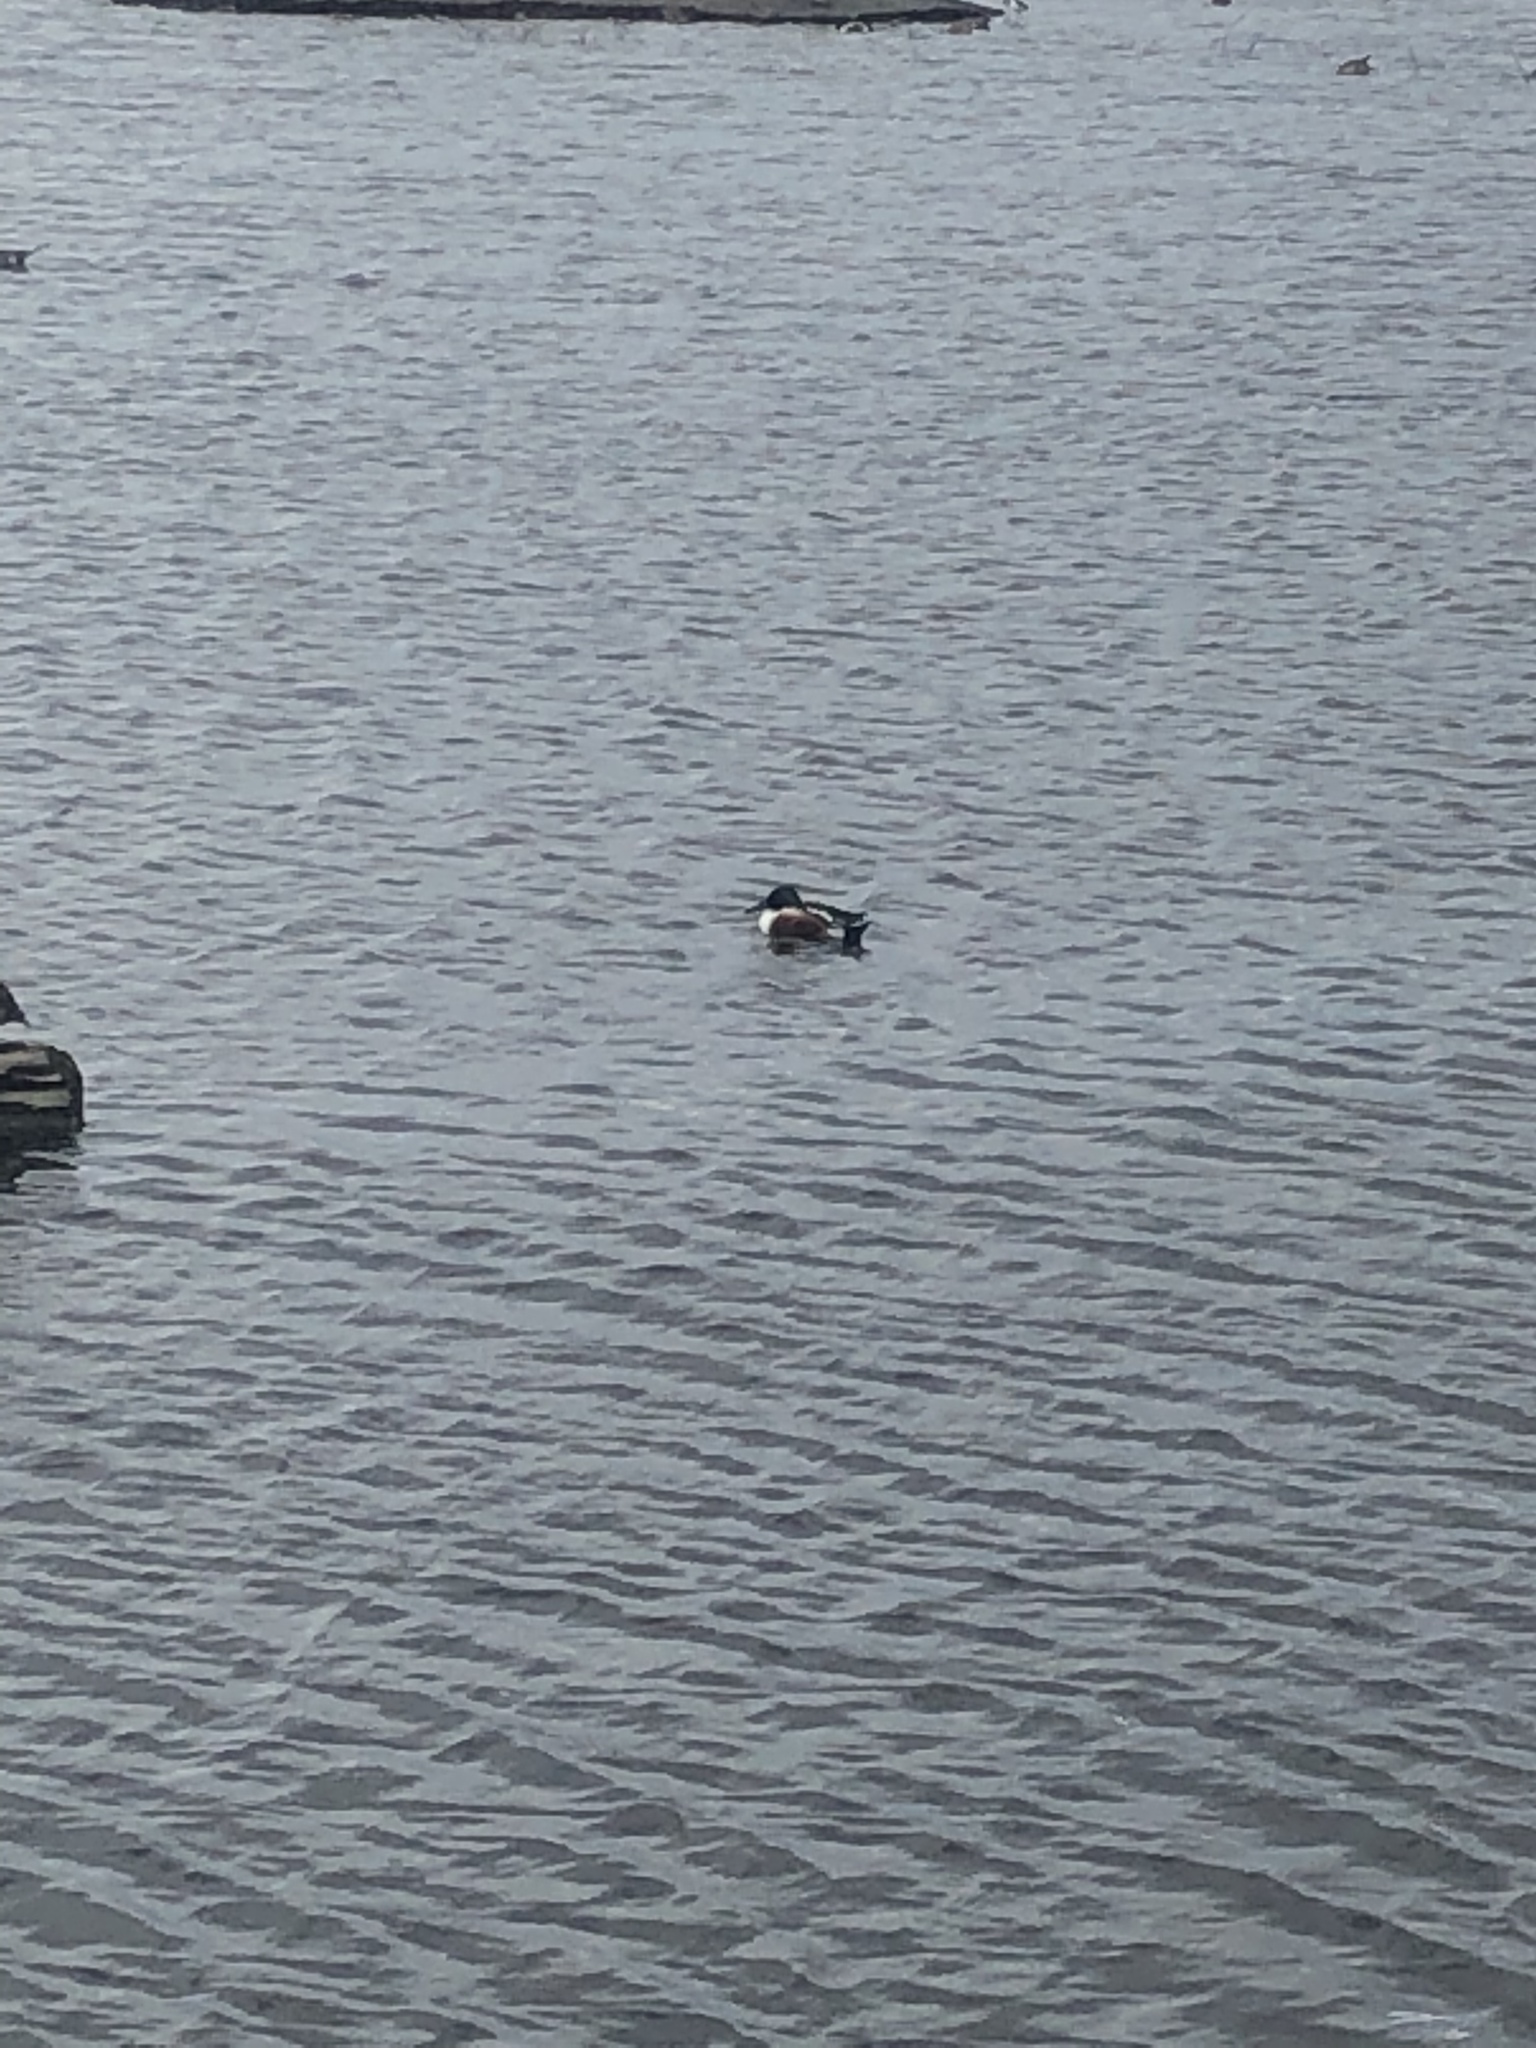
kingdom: Animalia
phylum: Chordata
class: Aves
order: Anseriformes
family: Anatidae
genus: Anser
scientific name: Anser albifrons
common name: Greater white-fronted goose
